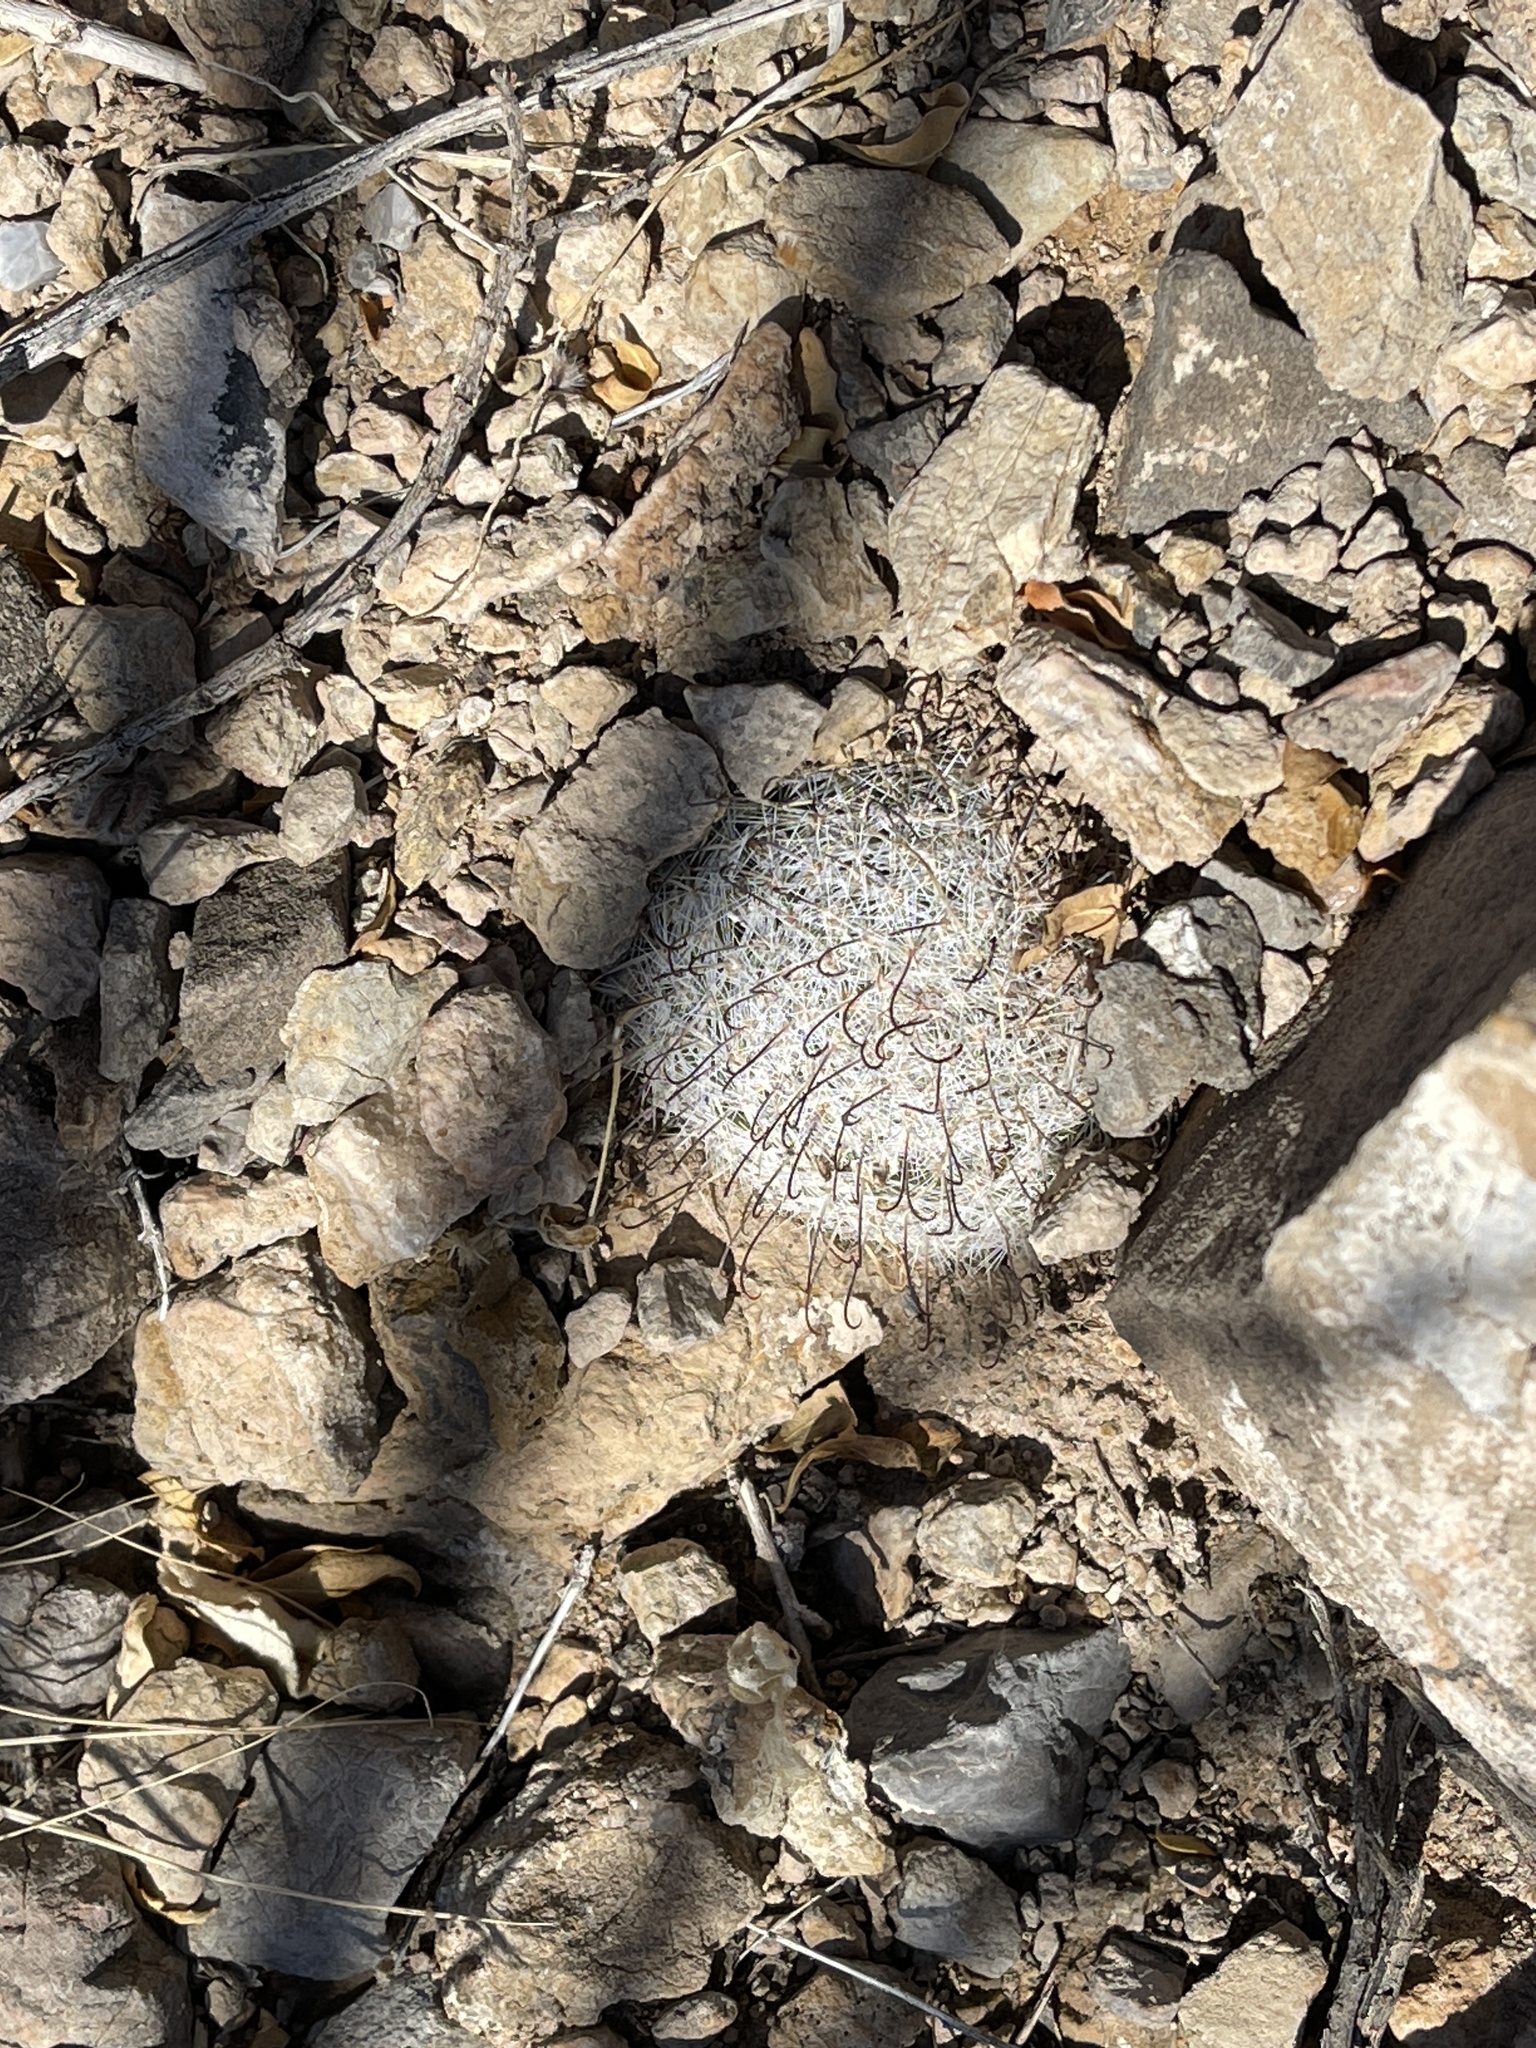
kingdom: Plantae
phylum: Tracheophyta
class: Magnoliopsida
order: Caryophyllales
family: Cactaceae
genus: Cochemiea
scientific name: Cochemiea grahamii
